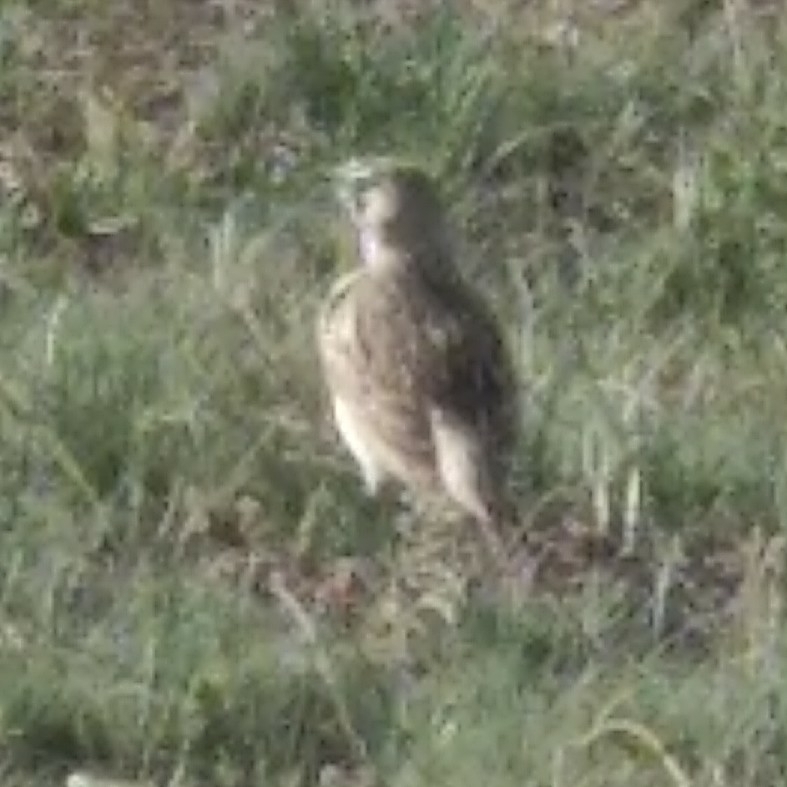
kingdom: Animalia
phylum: Chordata
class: Aves
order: Passeriformes
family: Alaudidae
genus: Eremophila
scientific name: Eremophila alpestris
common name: Horned lark
